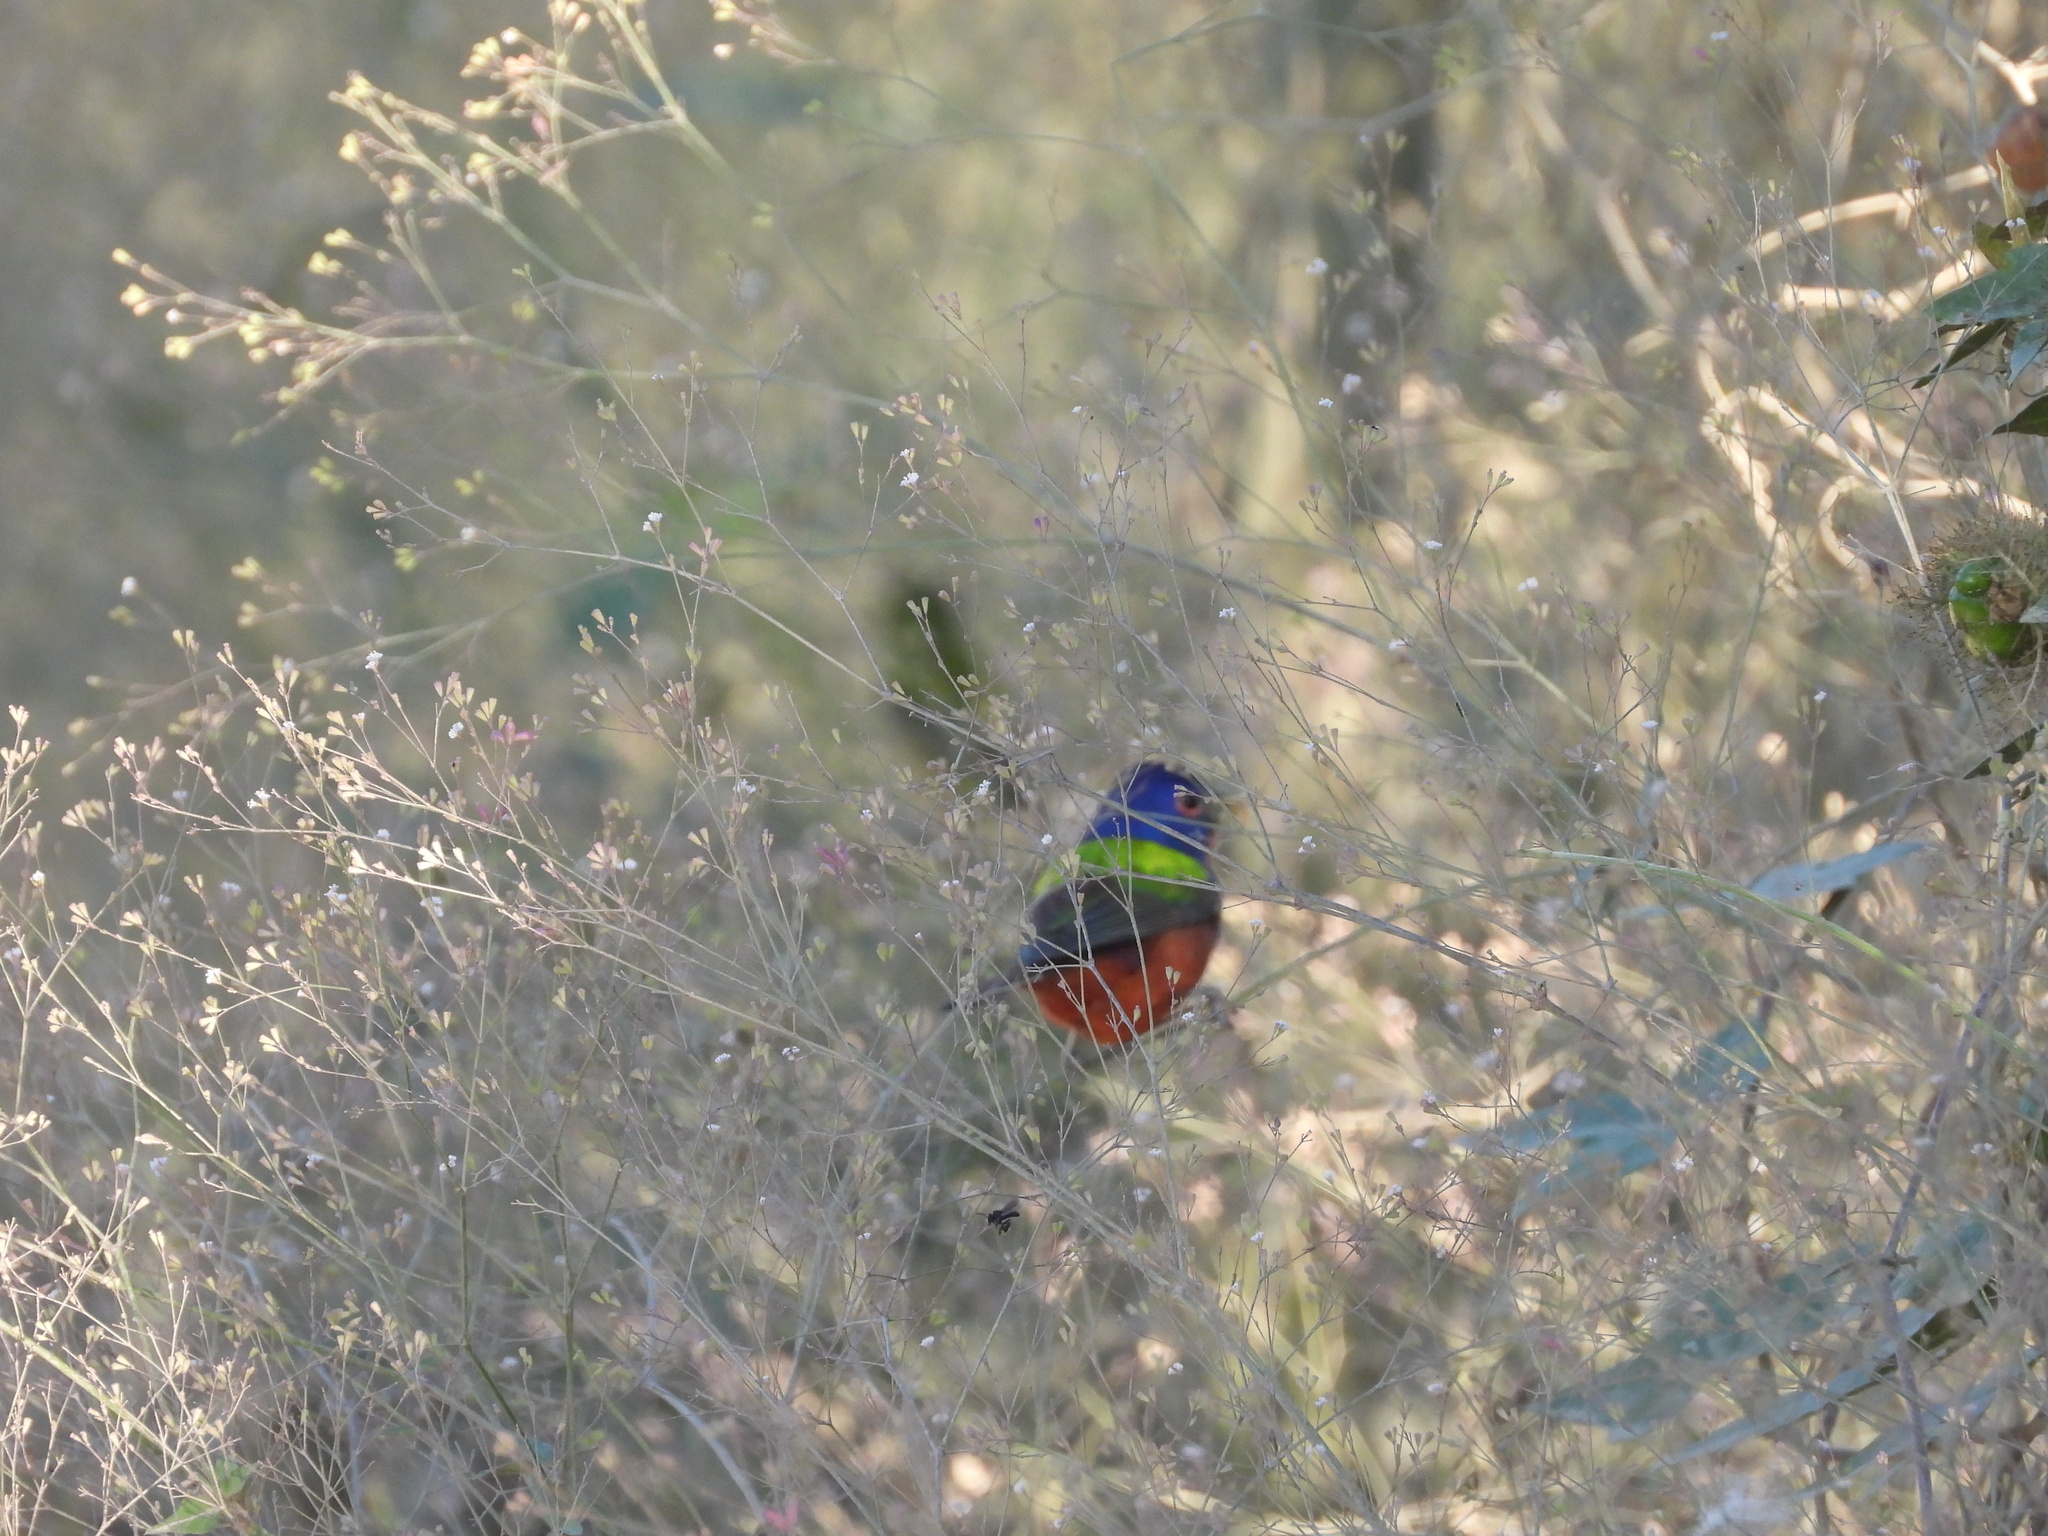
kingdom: Animalia
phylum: Chordata
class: Aves
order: Passeriformes
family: Cardinalidae
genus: Passerina
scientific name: Passerina ciris
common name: Painted bunting
